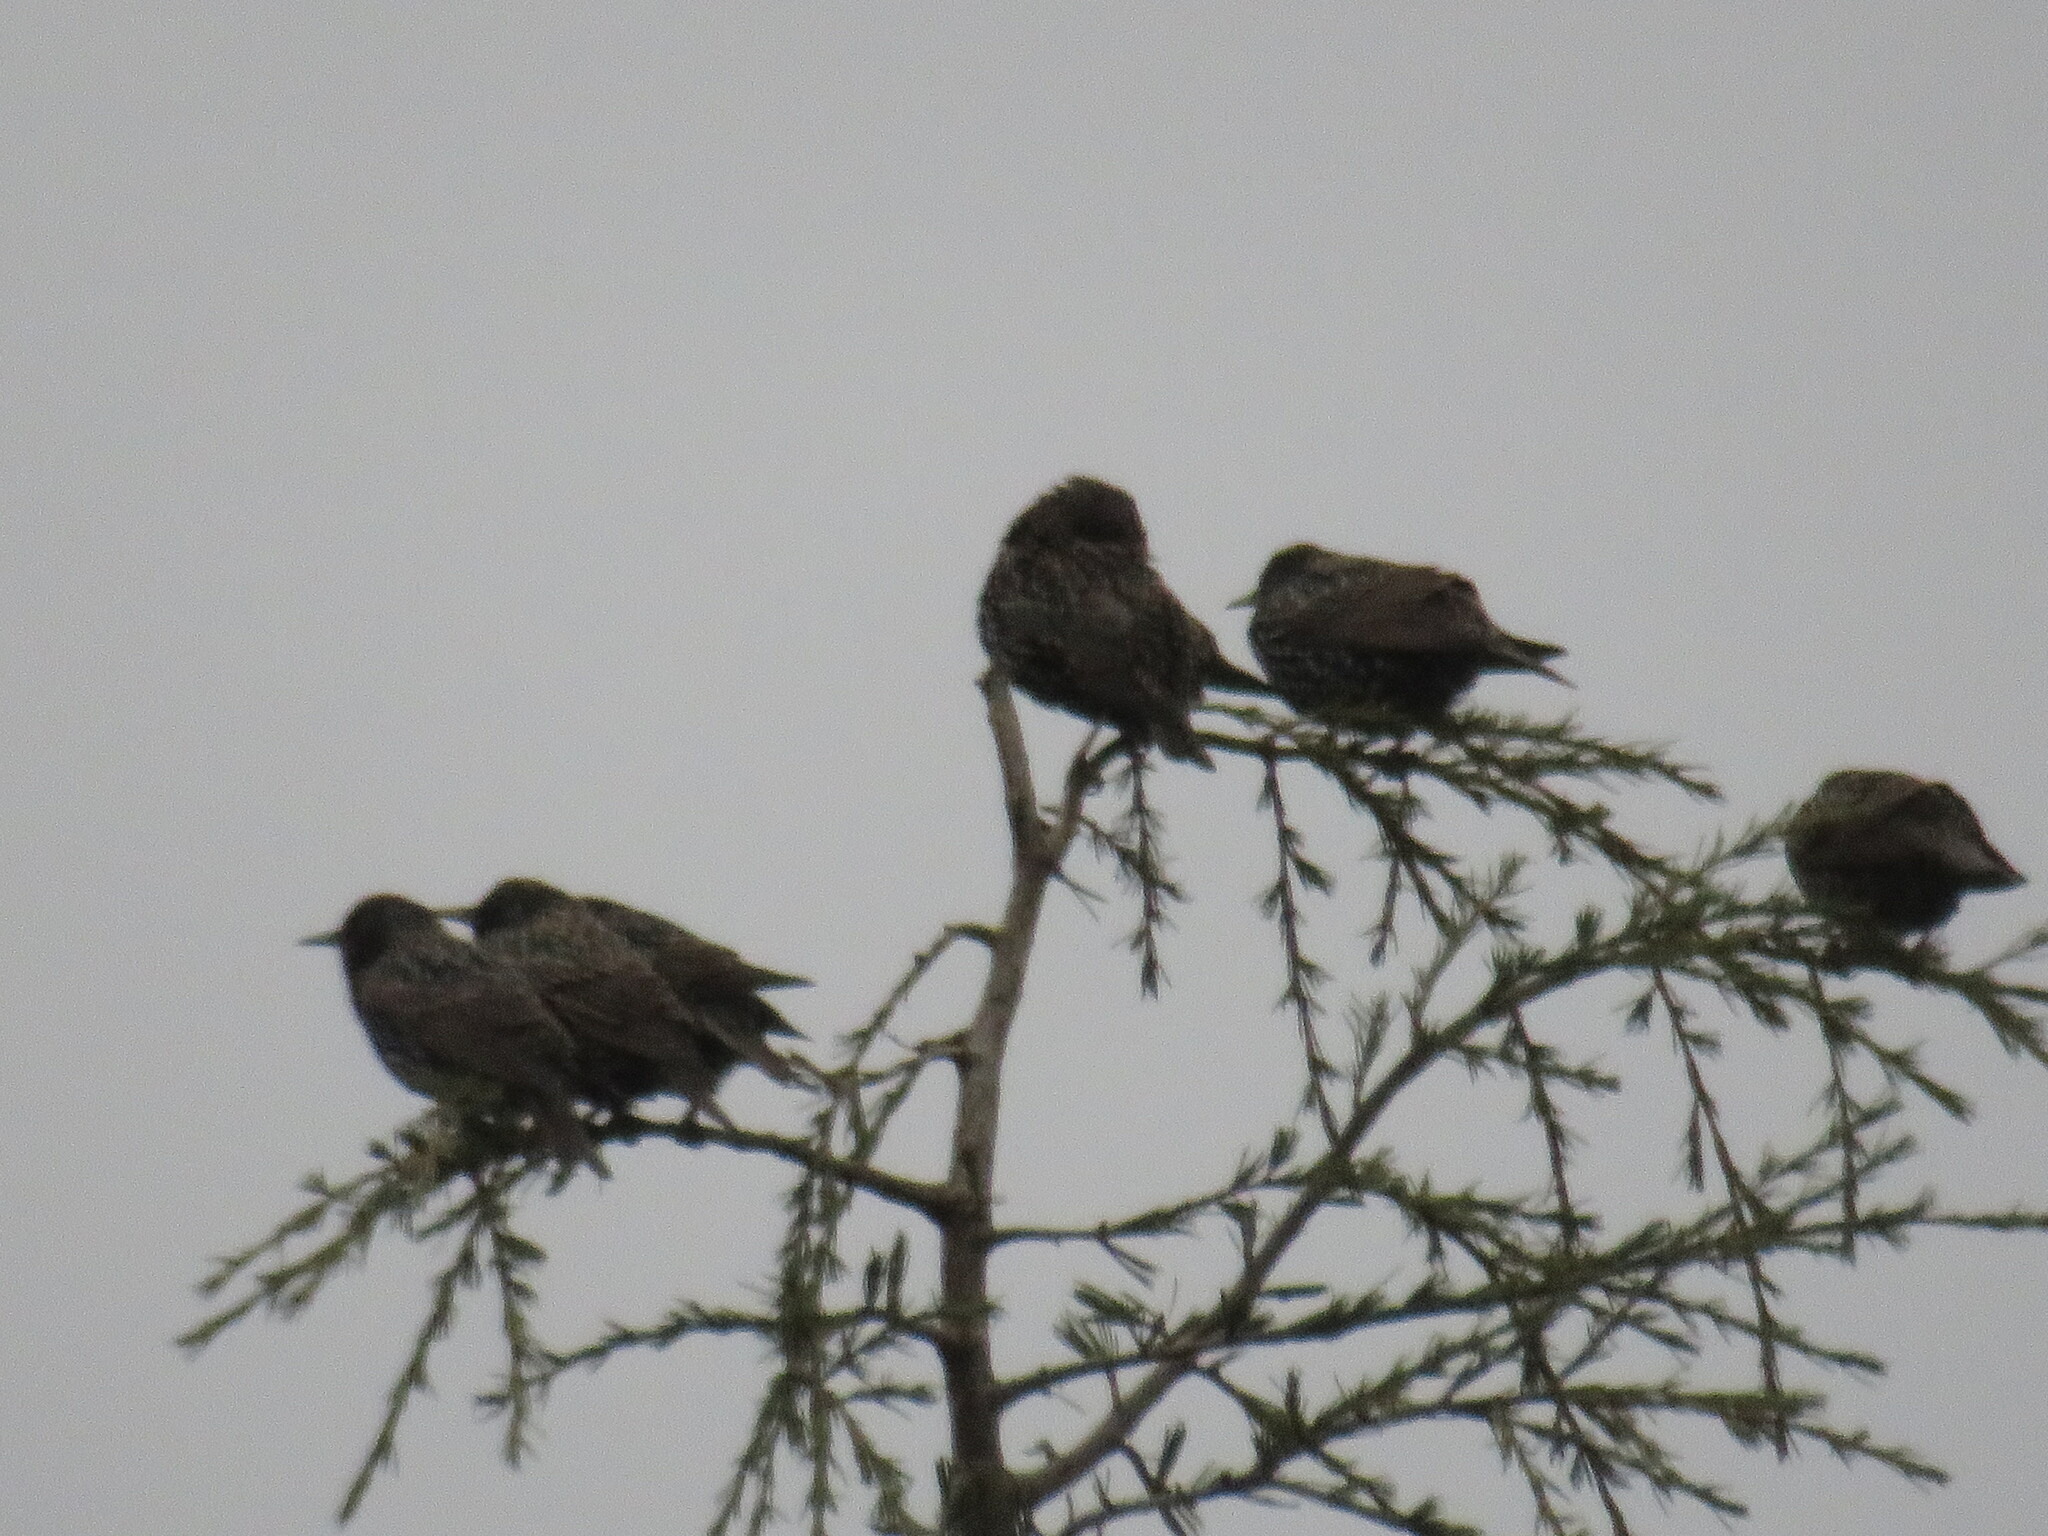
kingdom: Animalia
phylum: Chordata
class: Aves
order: Passeriformes
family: Sturnidae
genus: Sturnus
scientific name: Sturnus vulgaris
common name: Common starling
